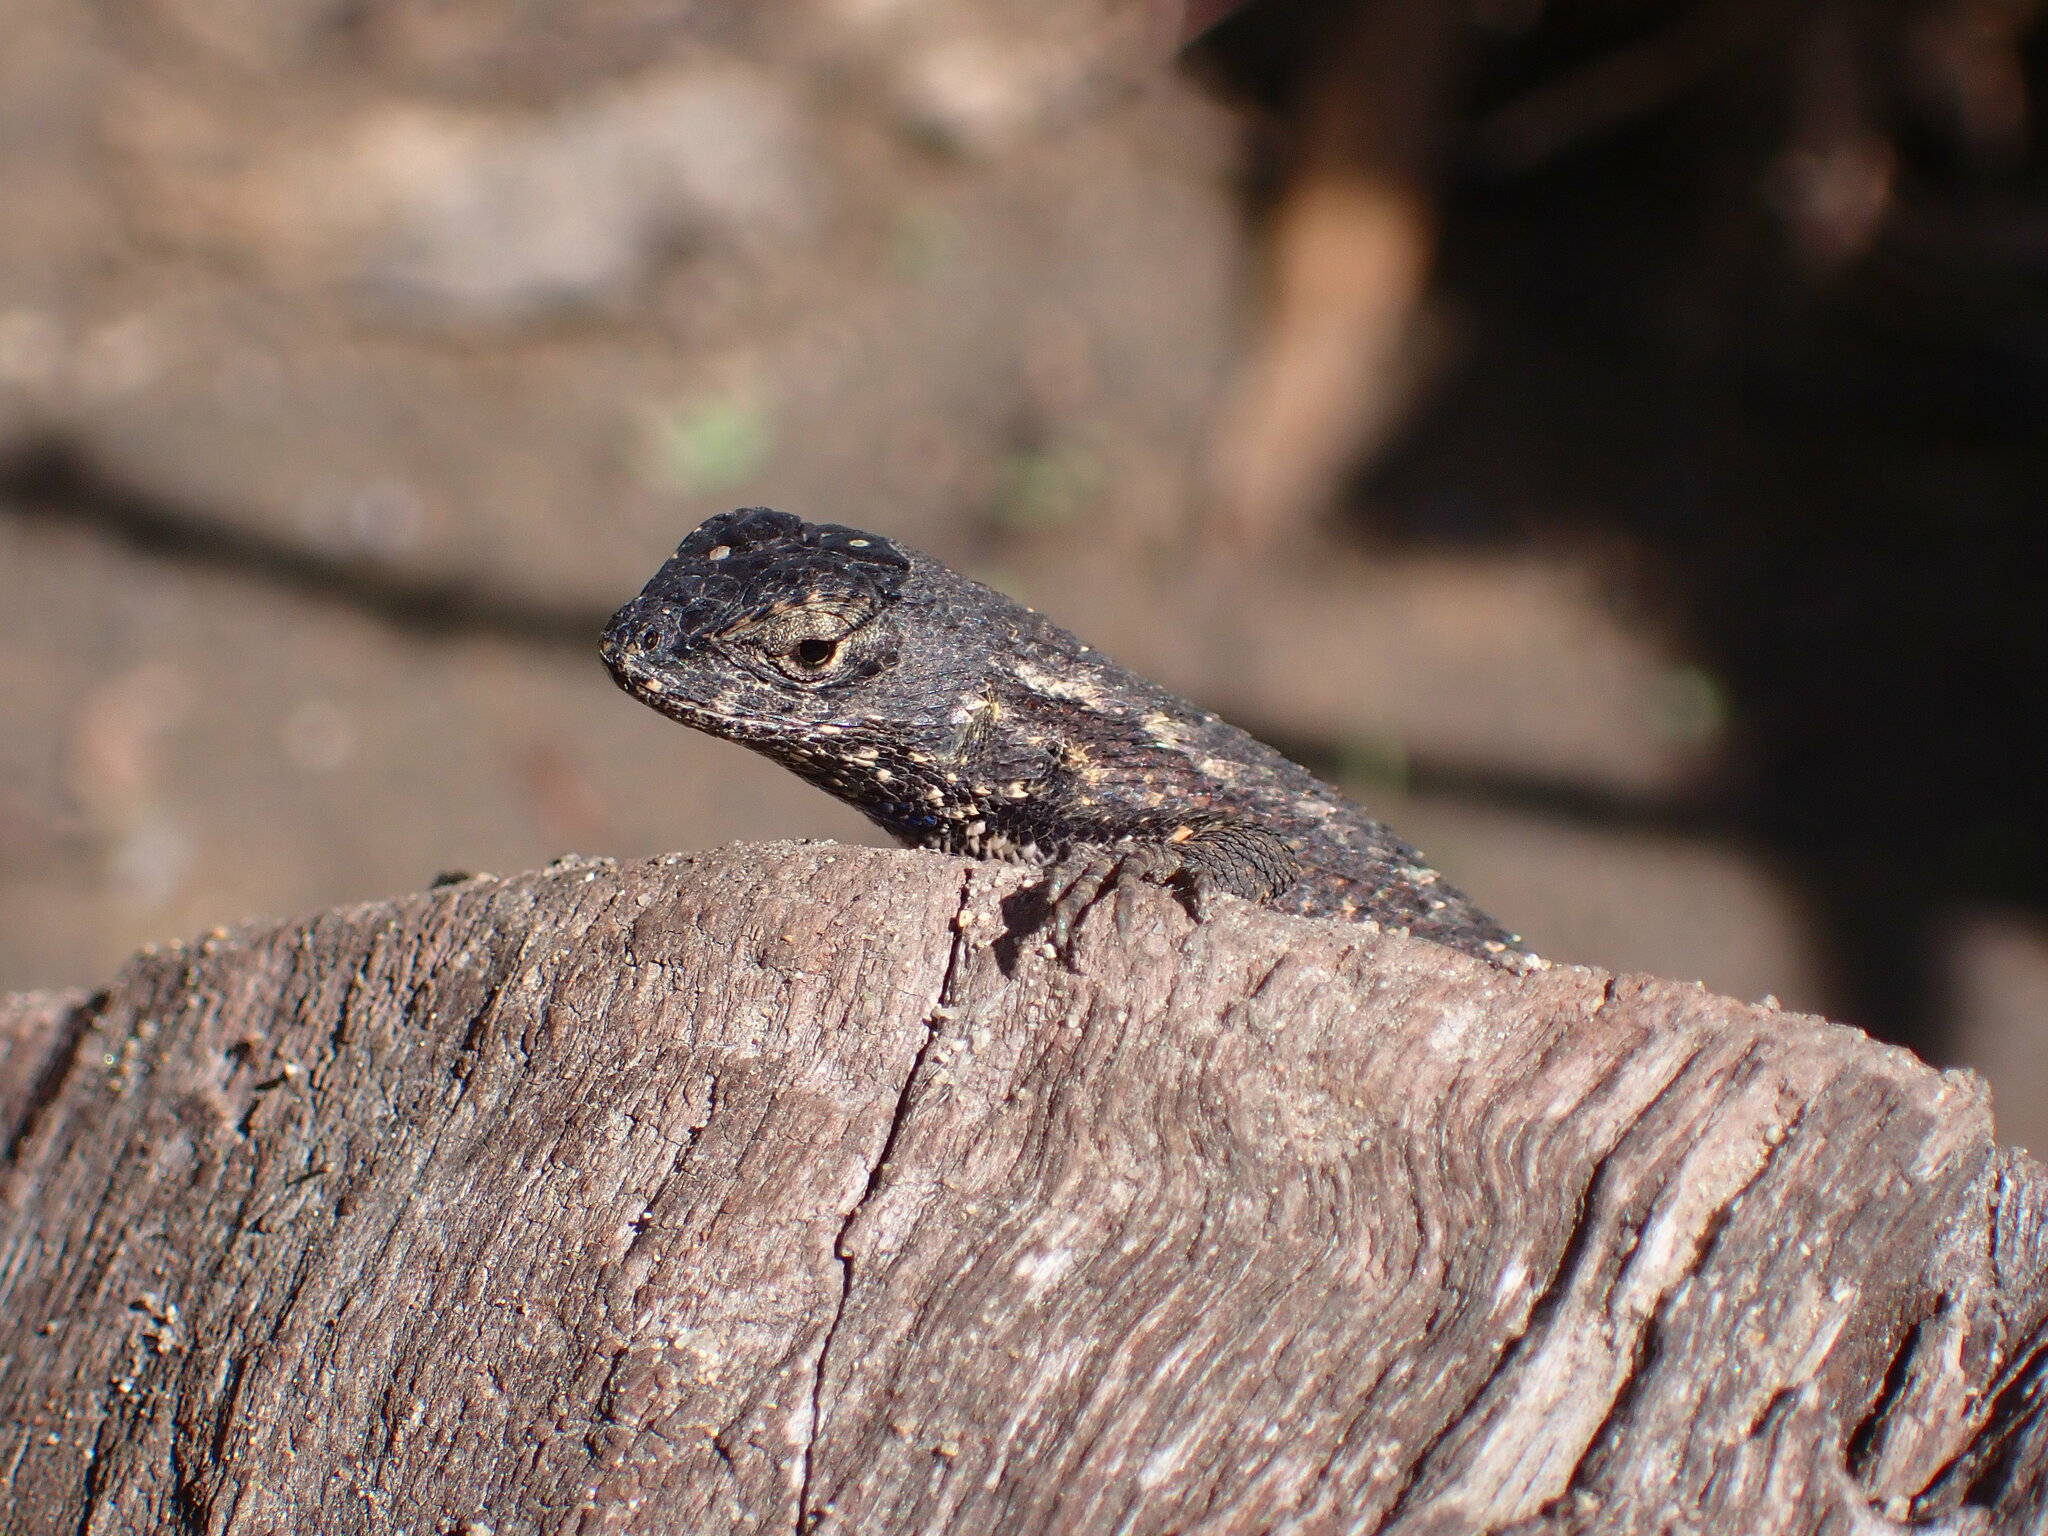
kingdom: Animalia
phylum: Chordata
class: Squamata
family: Phrynosomatidae
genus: Sceloporus
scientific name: Sceloporus occidentalis
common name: Western fence lizard
